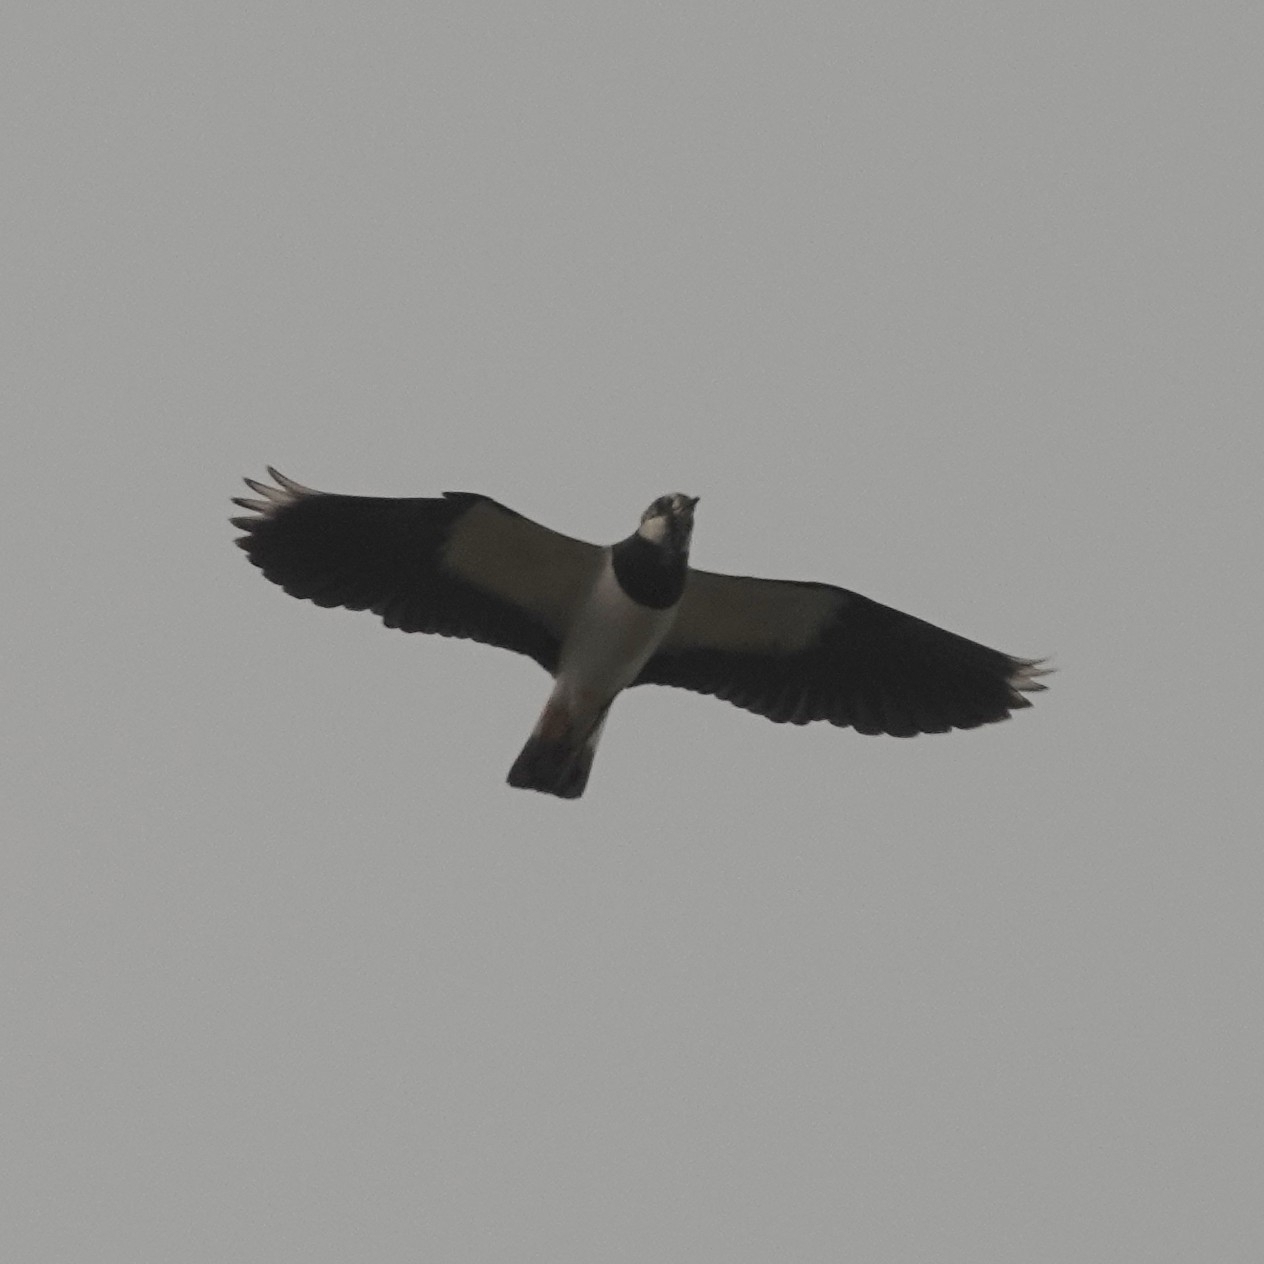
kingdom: Animalia
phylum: Chordata
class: Aves
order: Charadriiformes
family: Charadriidae
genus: Vanellus
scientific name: Vanellus vanellus
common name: Northern lapwing
